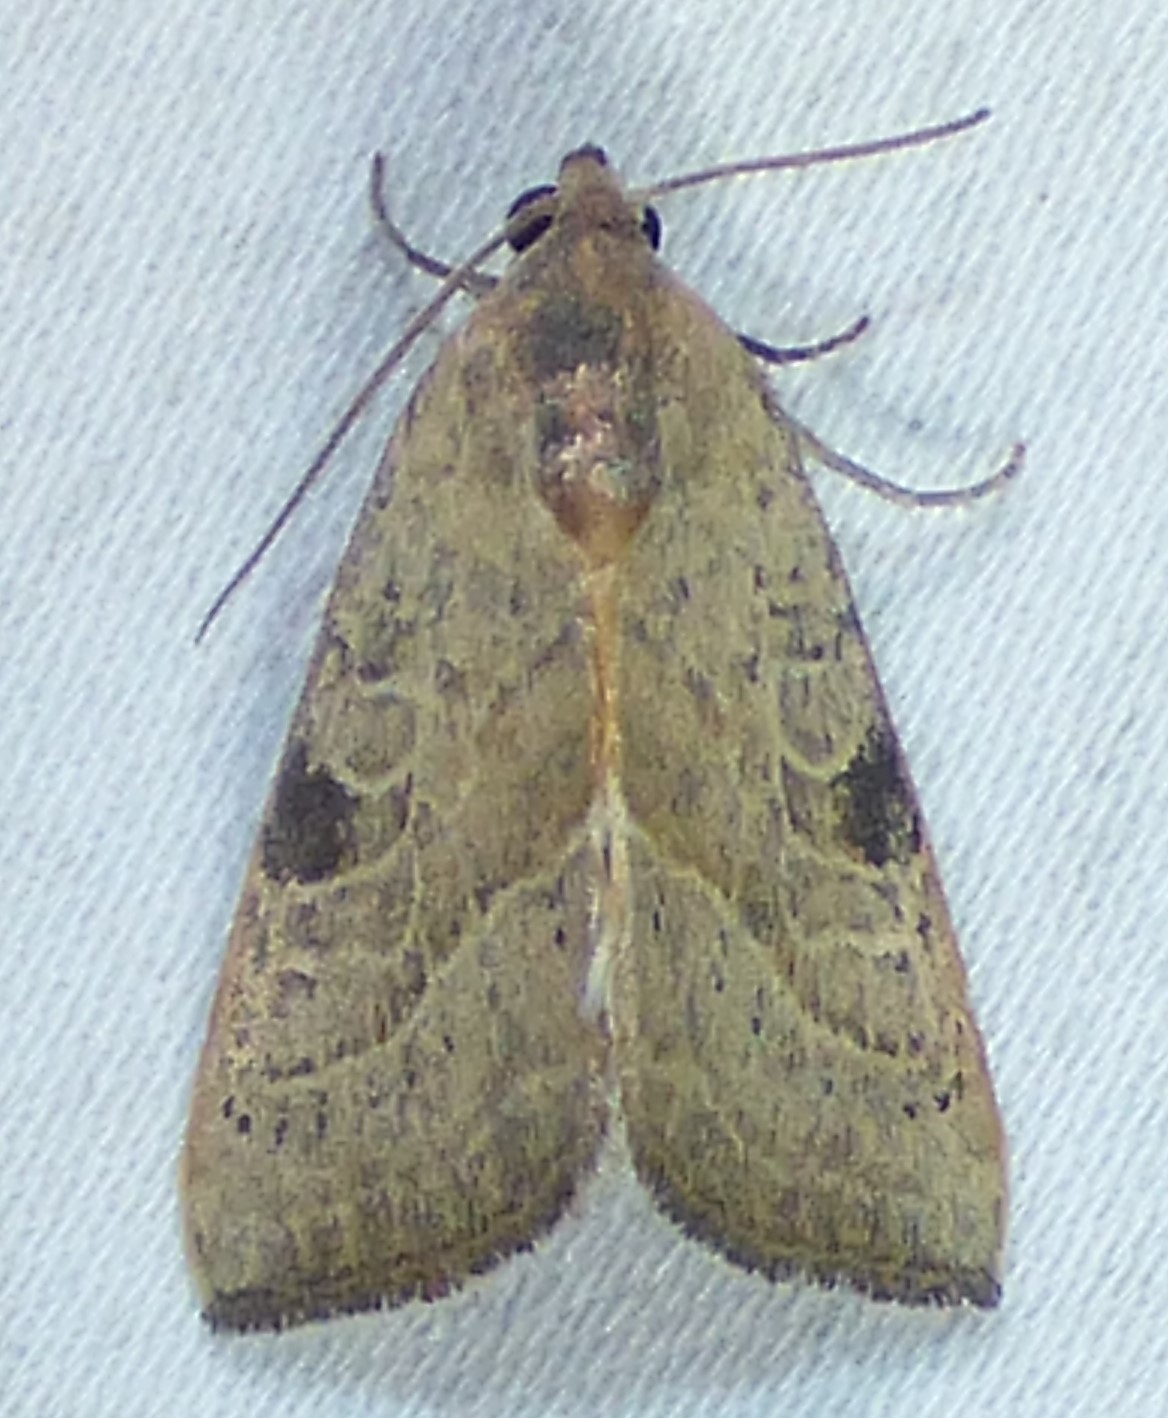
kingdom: Animalia
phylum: Arthropoda
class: Insecta
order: Lepidoptera
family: Noctuidae
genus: Galgula
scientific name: Galgula partita
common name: Wedgeling
